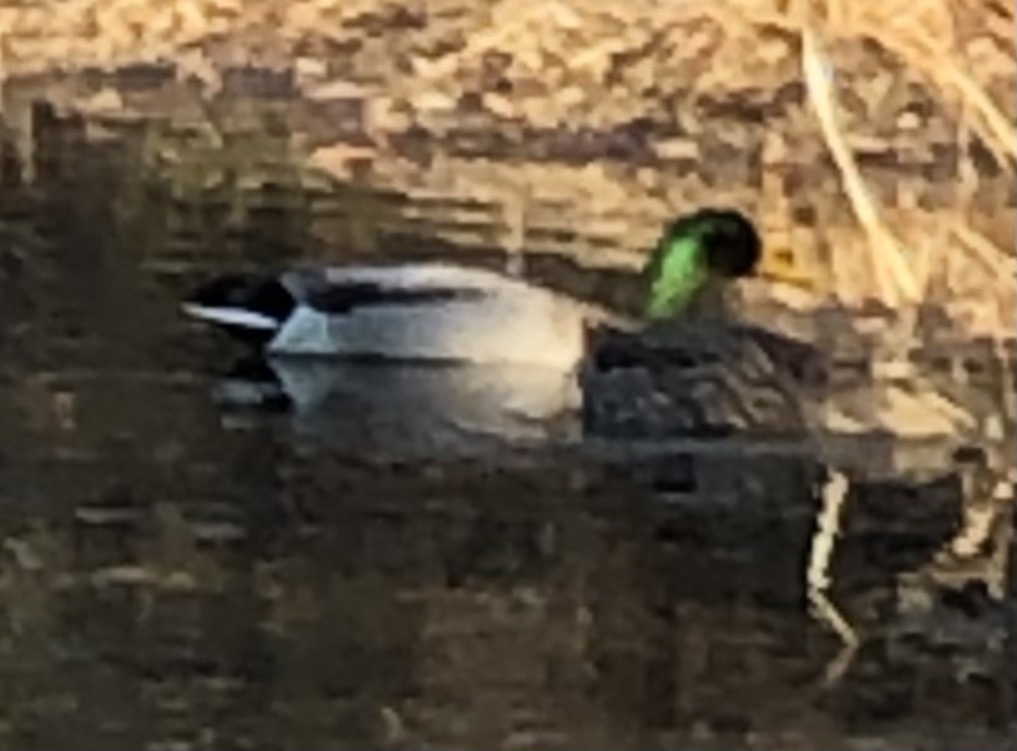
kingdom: Animalia
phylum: Chordata
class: Aves
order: Anseriformes
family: Anatidae
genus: Anas
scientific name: Anas platyrhynchos
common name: Mallard
